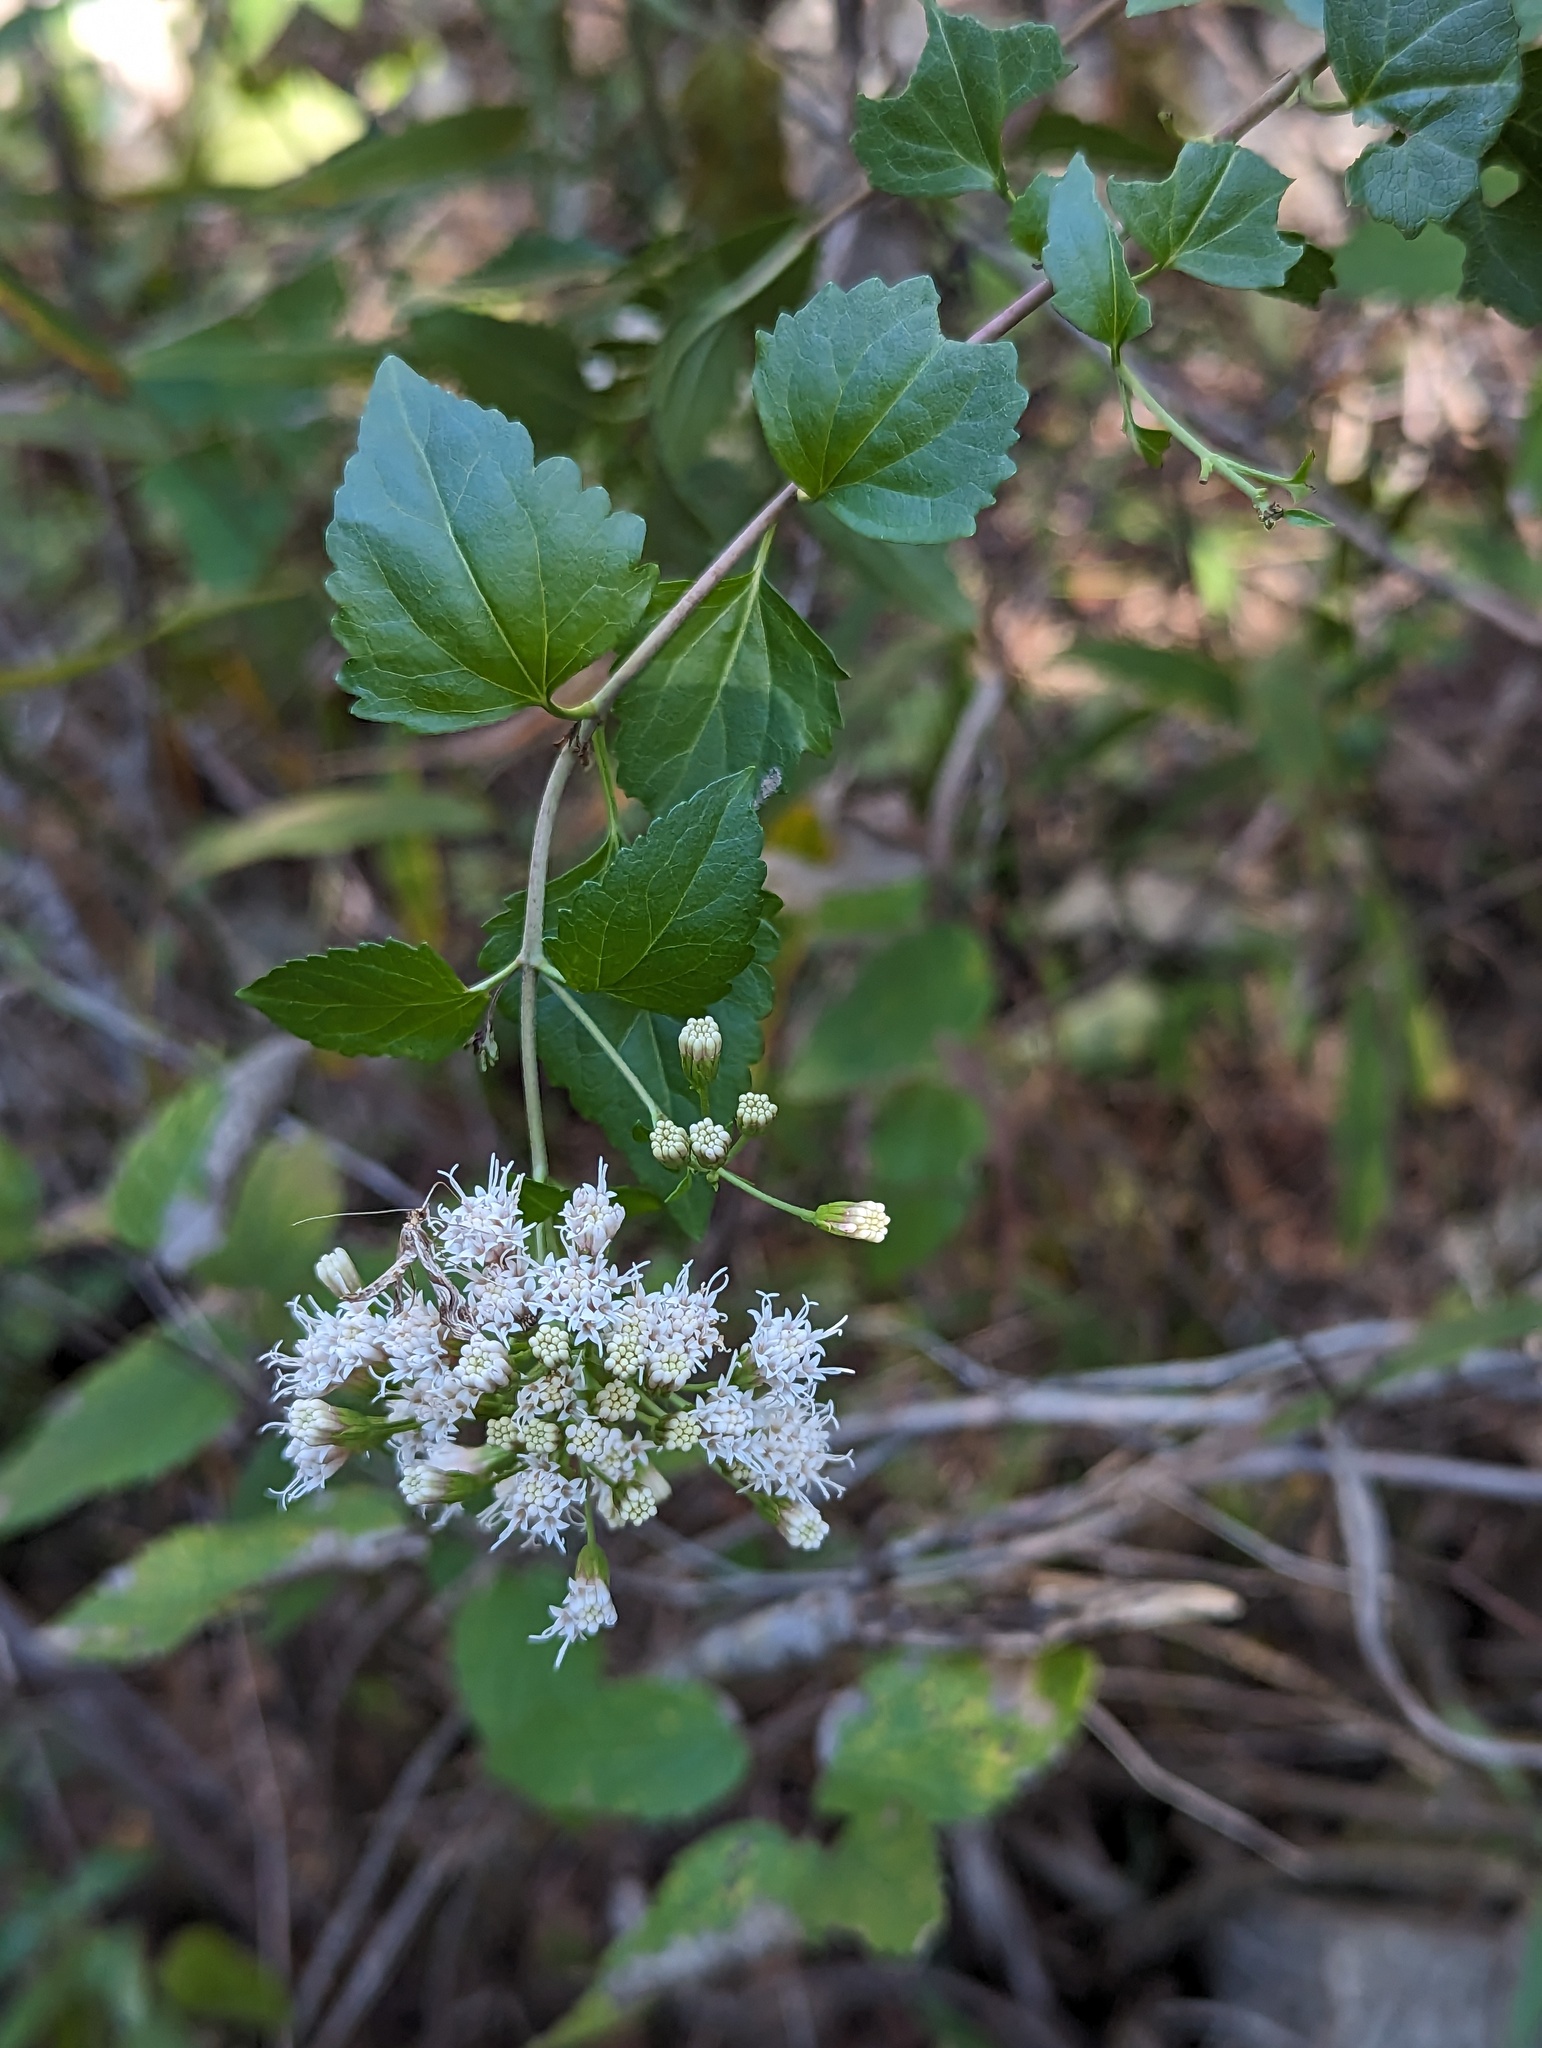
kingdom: Plantae
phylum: Tracheophyta
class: Magnoliopsida
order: Asterales
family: Asteraceae
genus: Ageratina
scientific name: Ageratina havanensis
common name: Havana snakeroot
